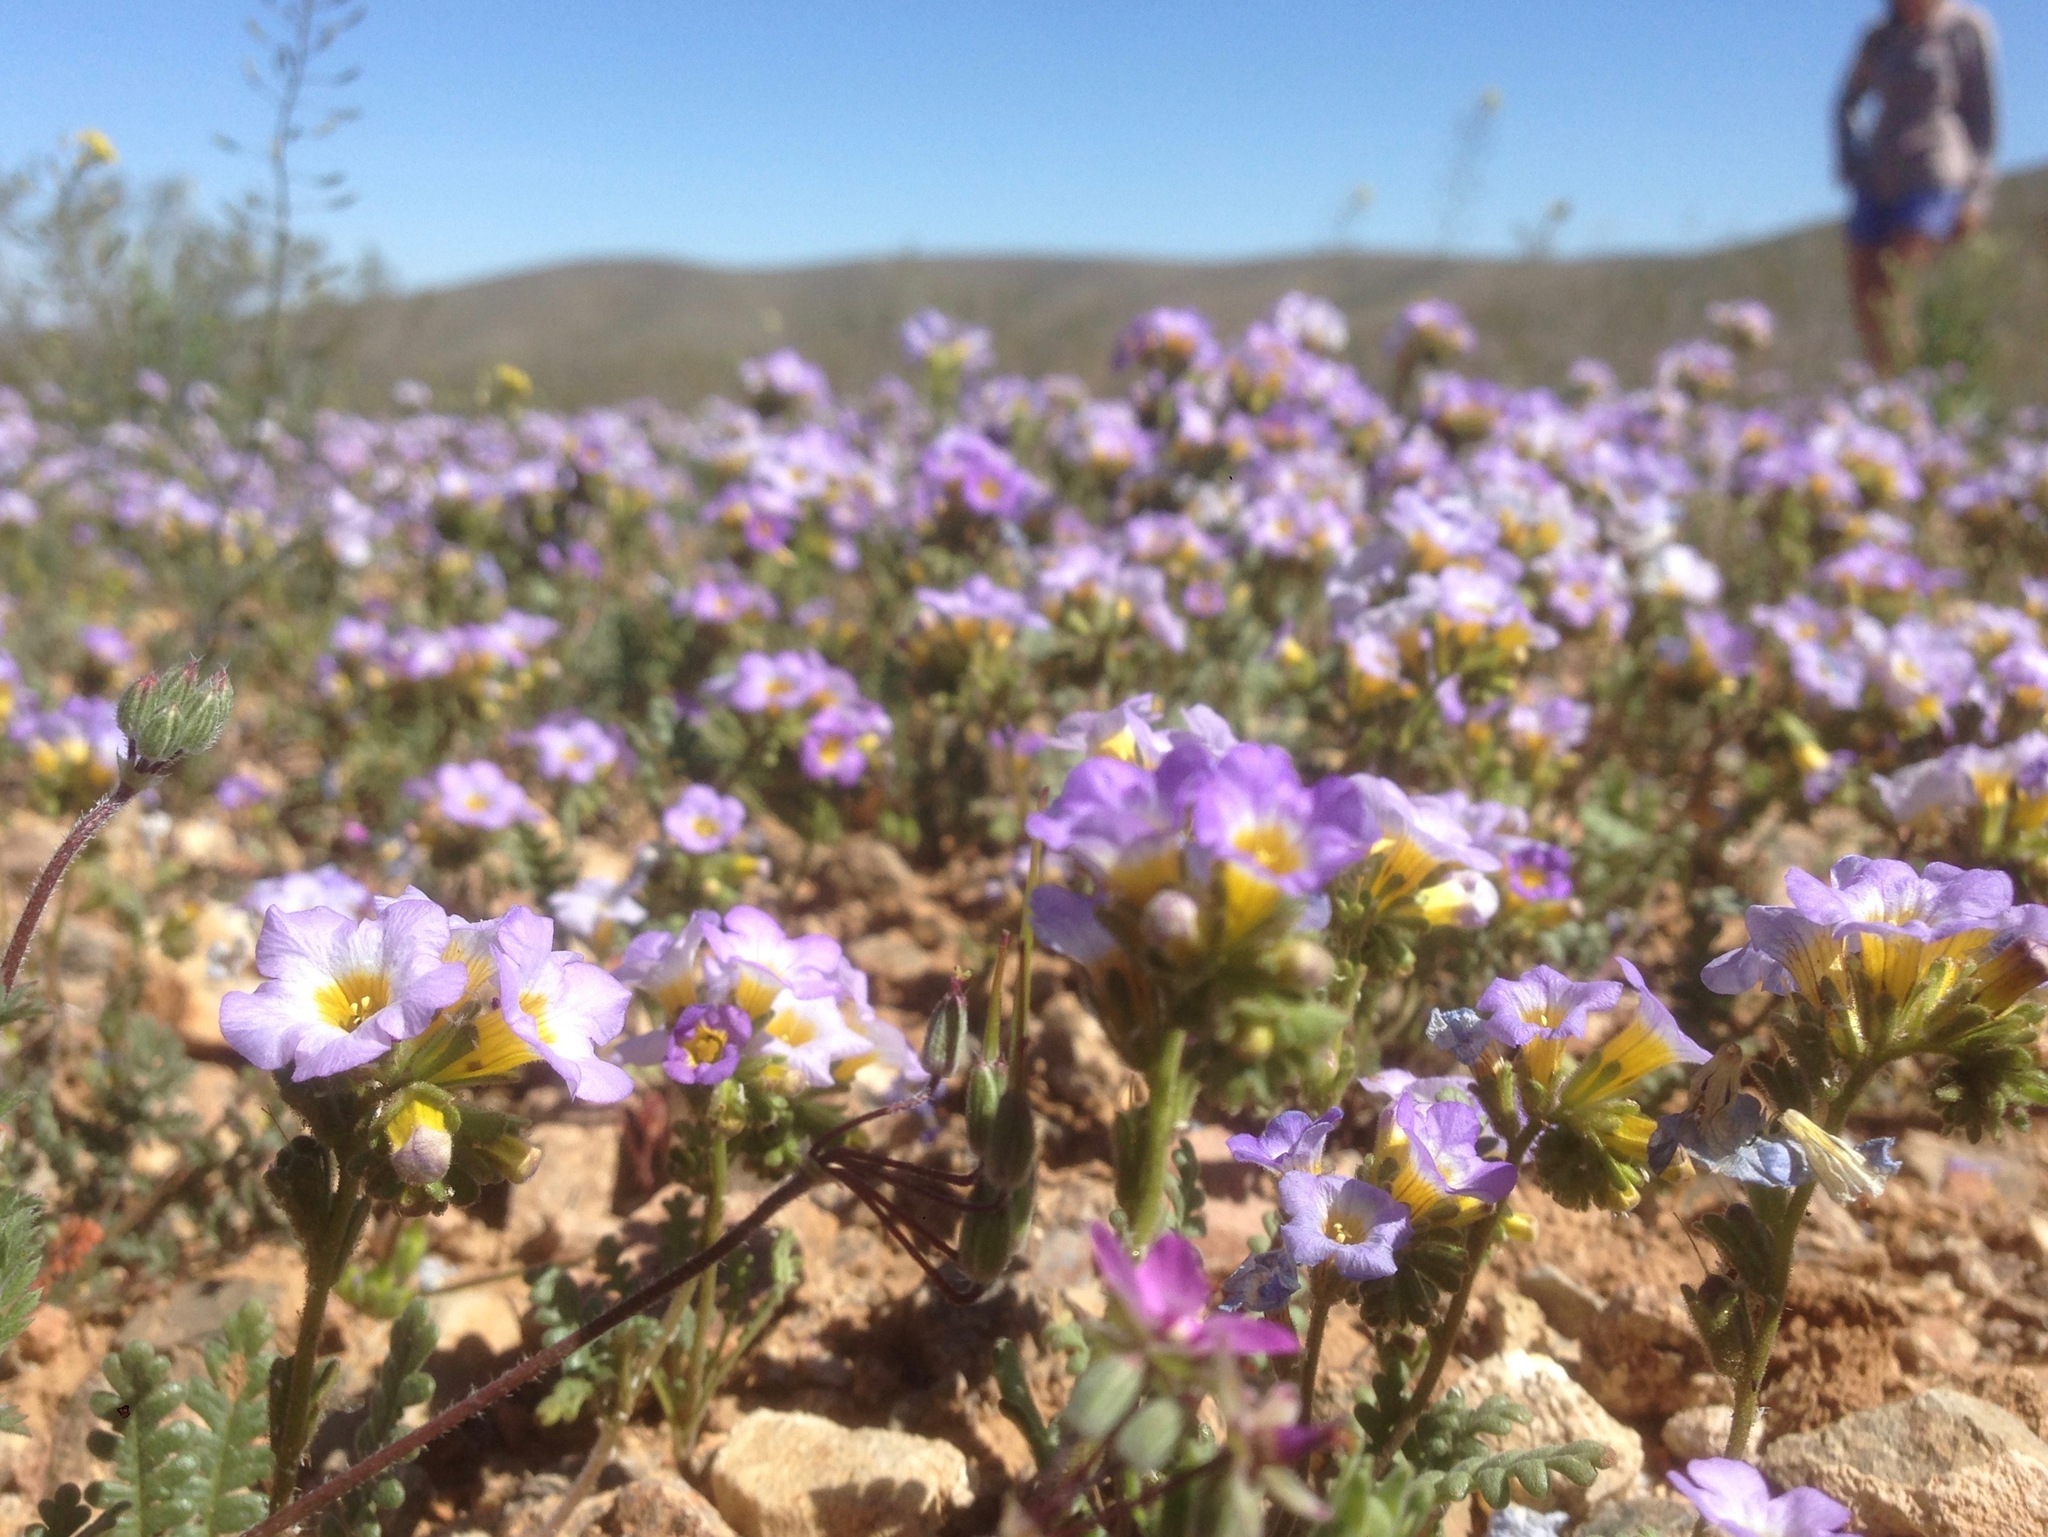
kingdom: Plantae
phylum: Tracheophyta
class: Magnoliopsida
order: Boraginales
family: Hydrophyllaceae
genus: Phacelia
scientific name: Phacelia fremontii
